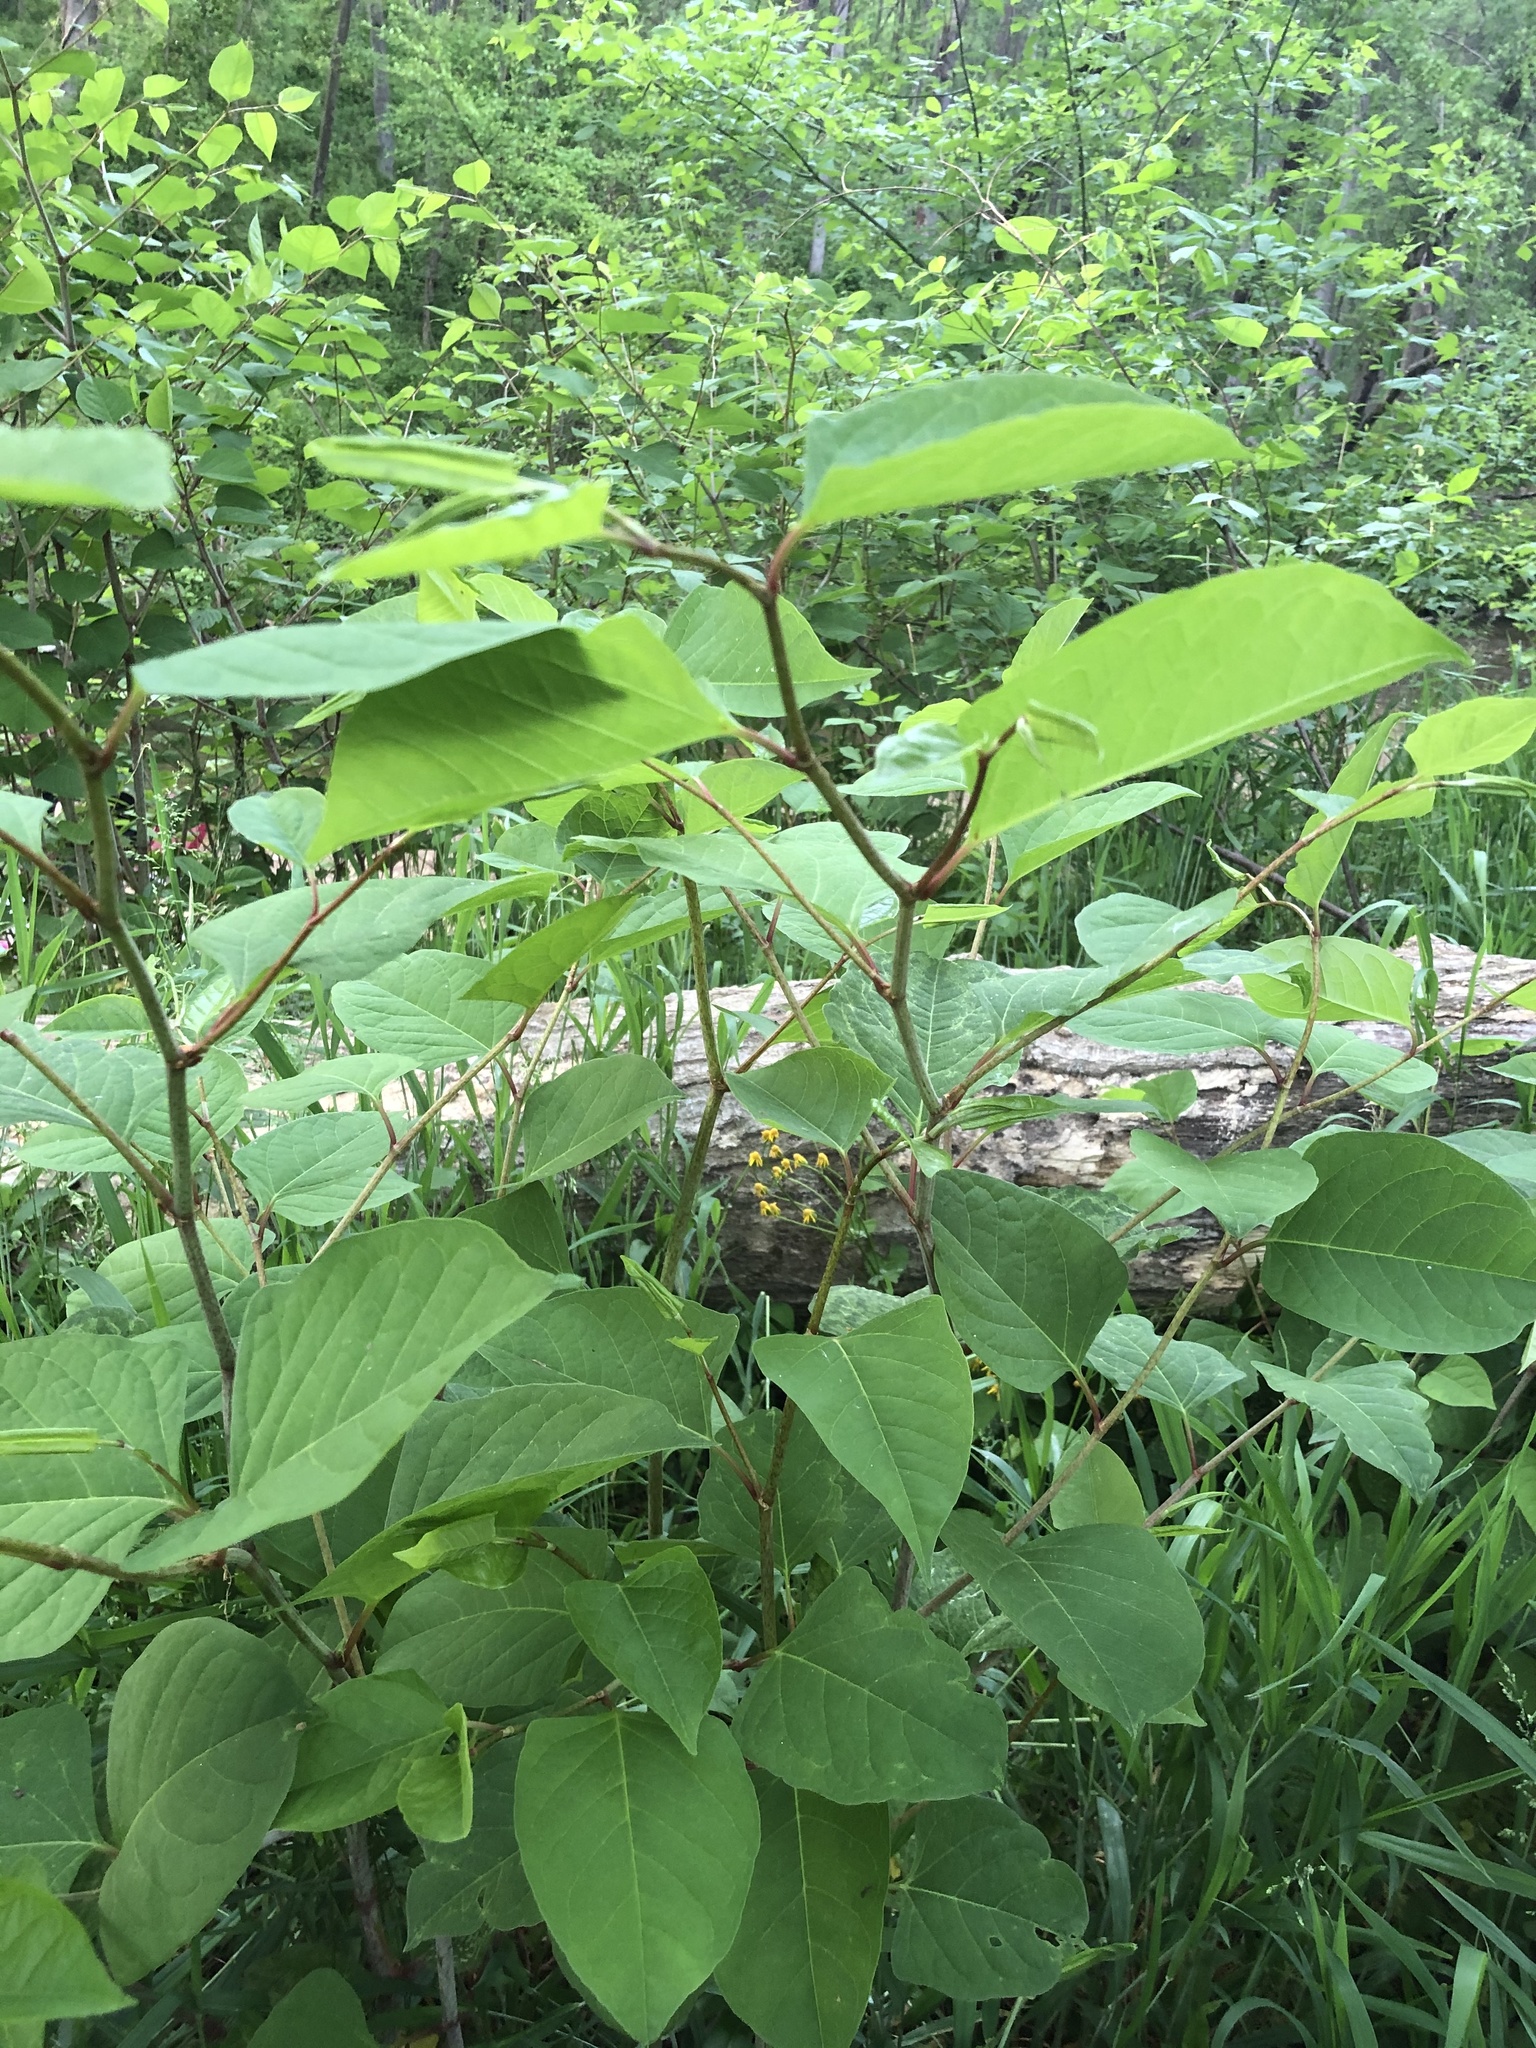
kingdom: Plantae
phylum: Tracheophyta
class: Magnoliopsida
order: Caryophyllales
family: Polygonaceae
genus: Reynoutria
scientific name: Reynoutria japonica
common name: Japanese knotweed
